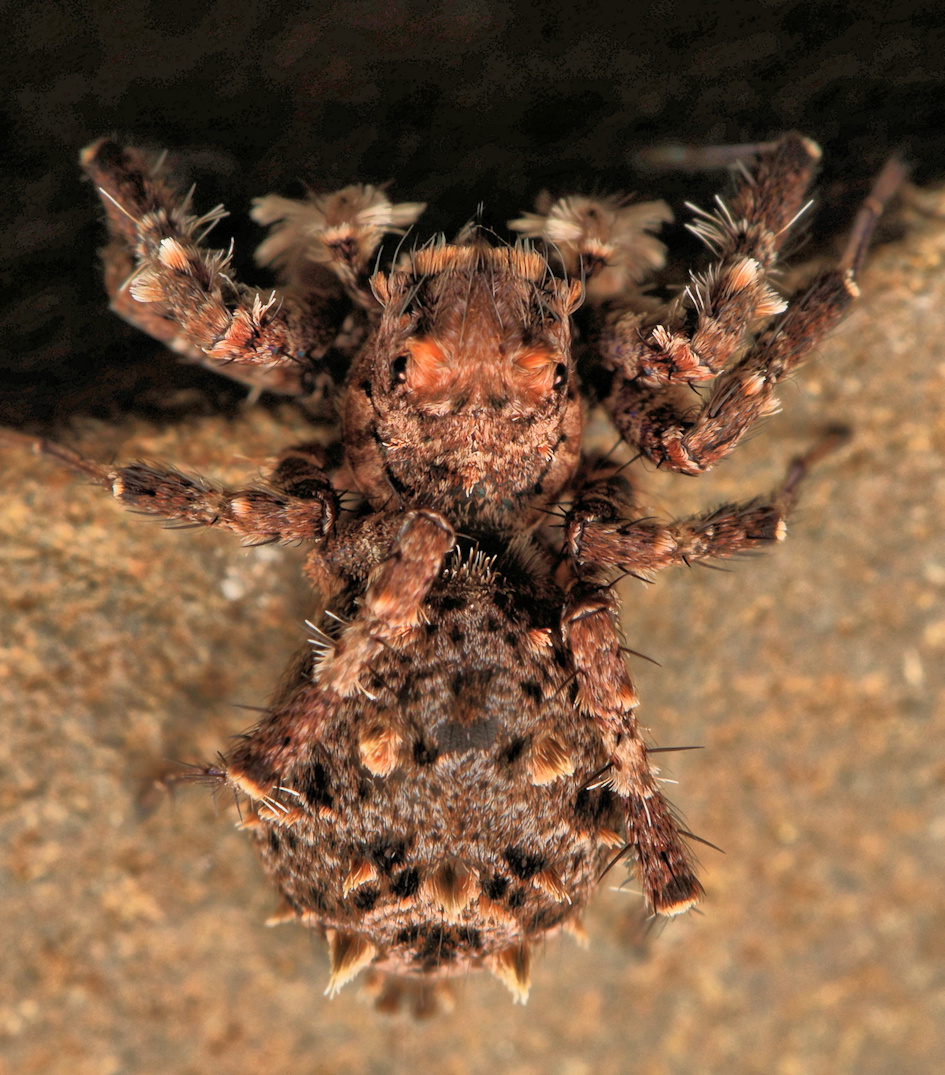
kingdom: Animalia
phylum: Arthropoda
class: Arachnida
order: Araneae
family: Salticidae
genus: Portia
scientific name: Portia schultzi
